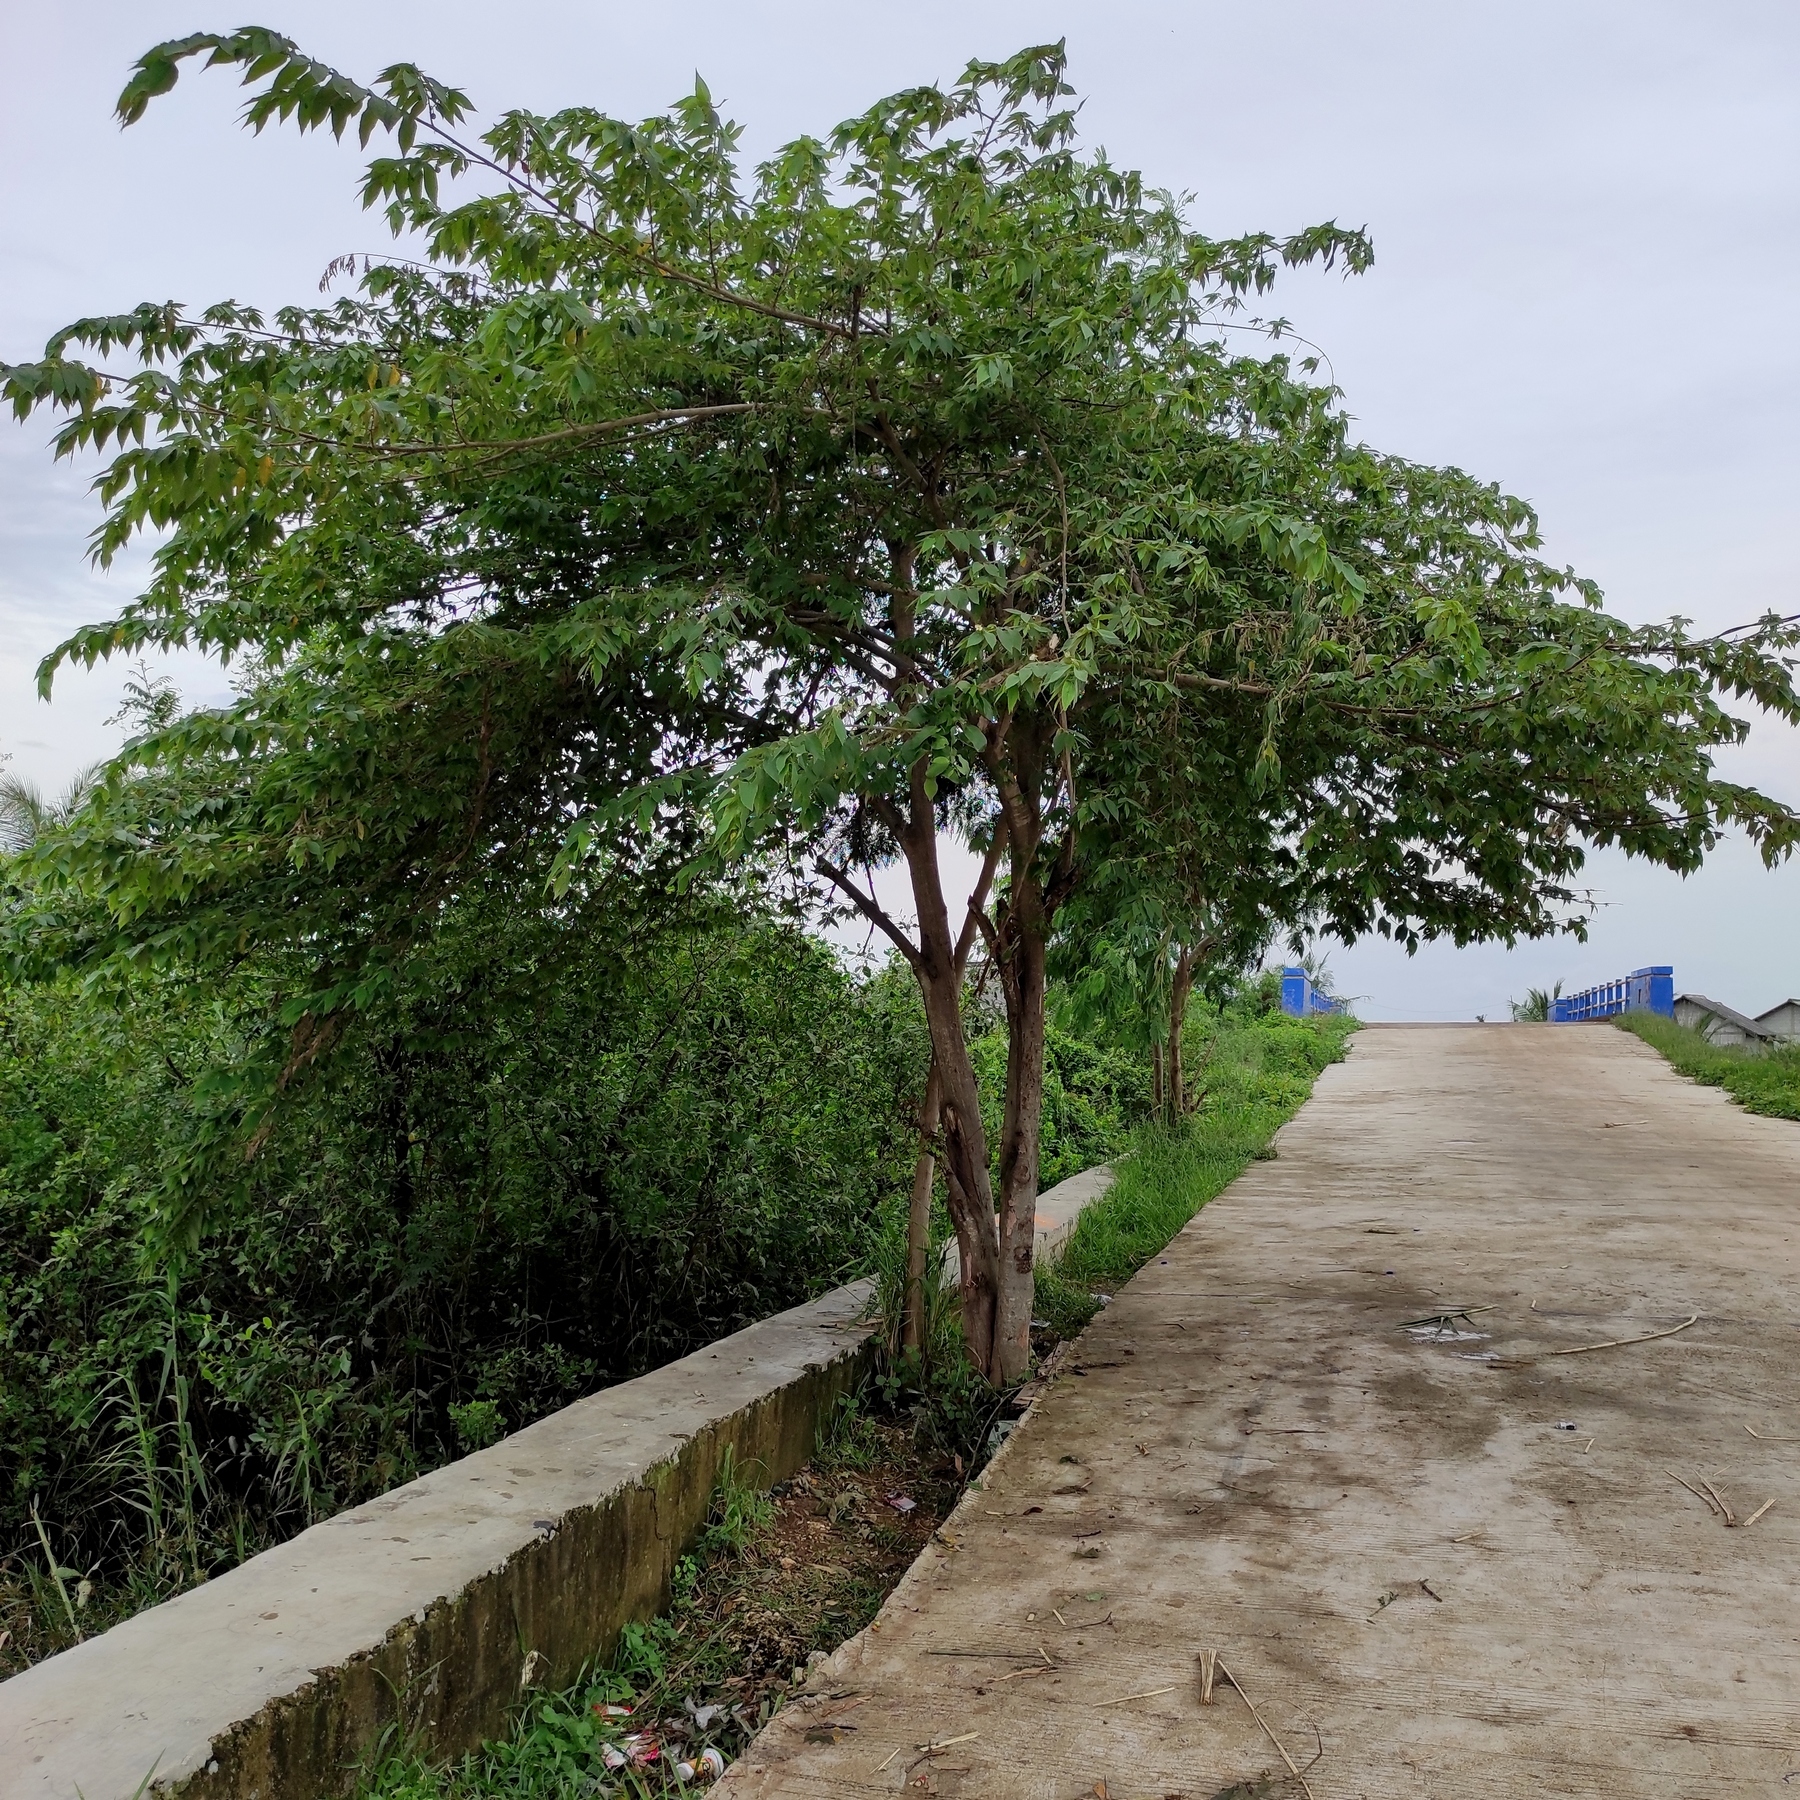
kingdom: Plantae
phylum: Tracheophyta
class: Magnoliopsida
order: Malvales
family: Muntingiaceae
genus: Muntingia
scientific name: Muntingia calabura
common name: Strawberrytree
